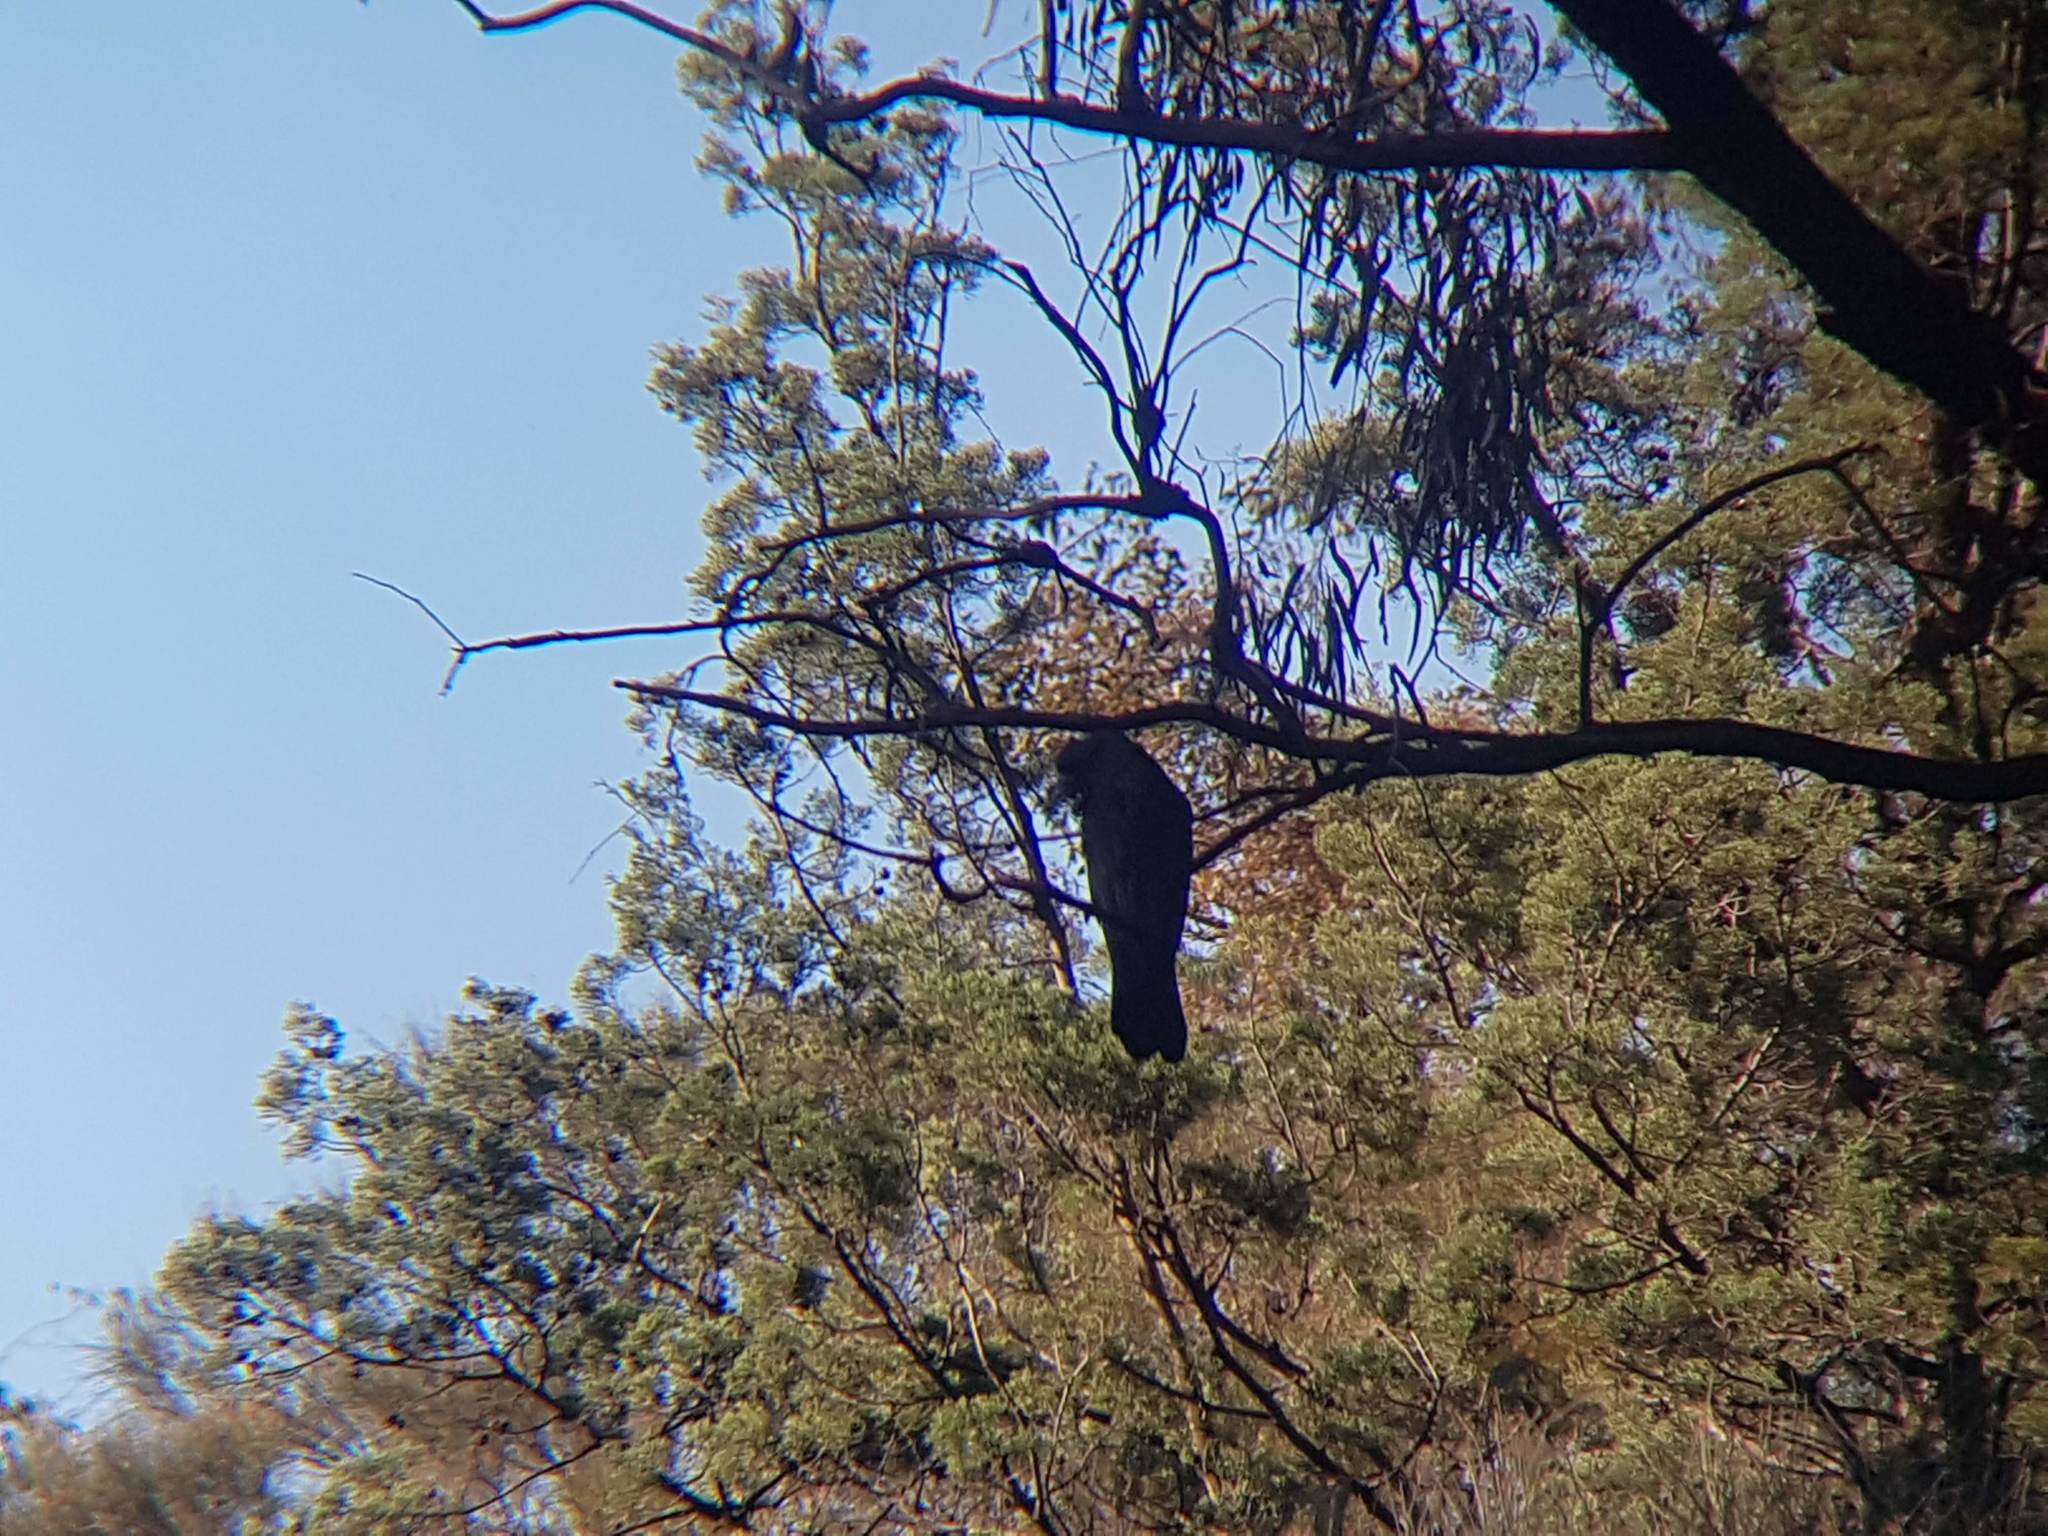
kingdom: Animalia
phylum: Chordata
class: Aves
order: Psittaciformes
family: Psittacidae
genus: Calyptorhynchus
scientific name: Calyptorhynchus lathami
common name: Glossy black cockatoo
